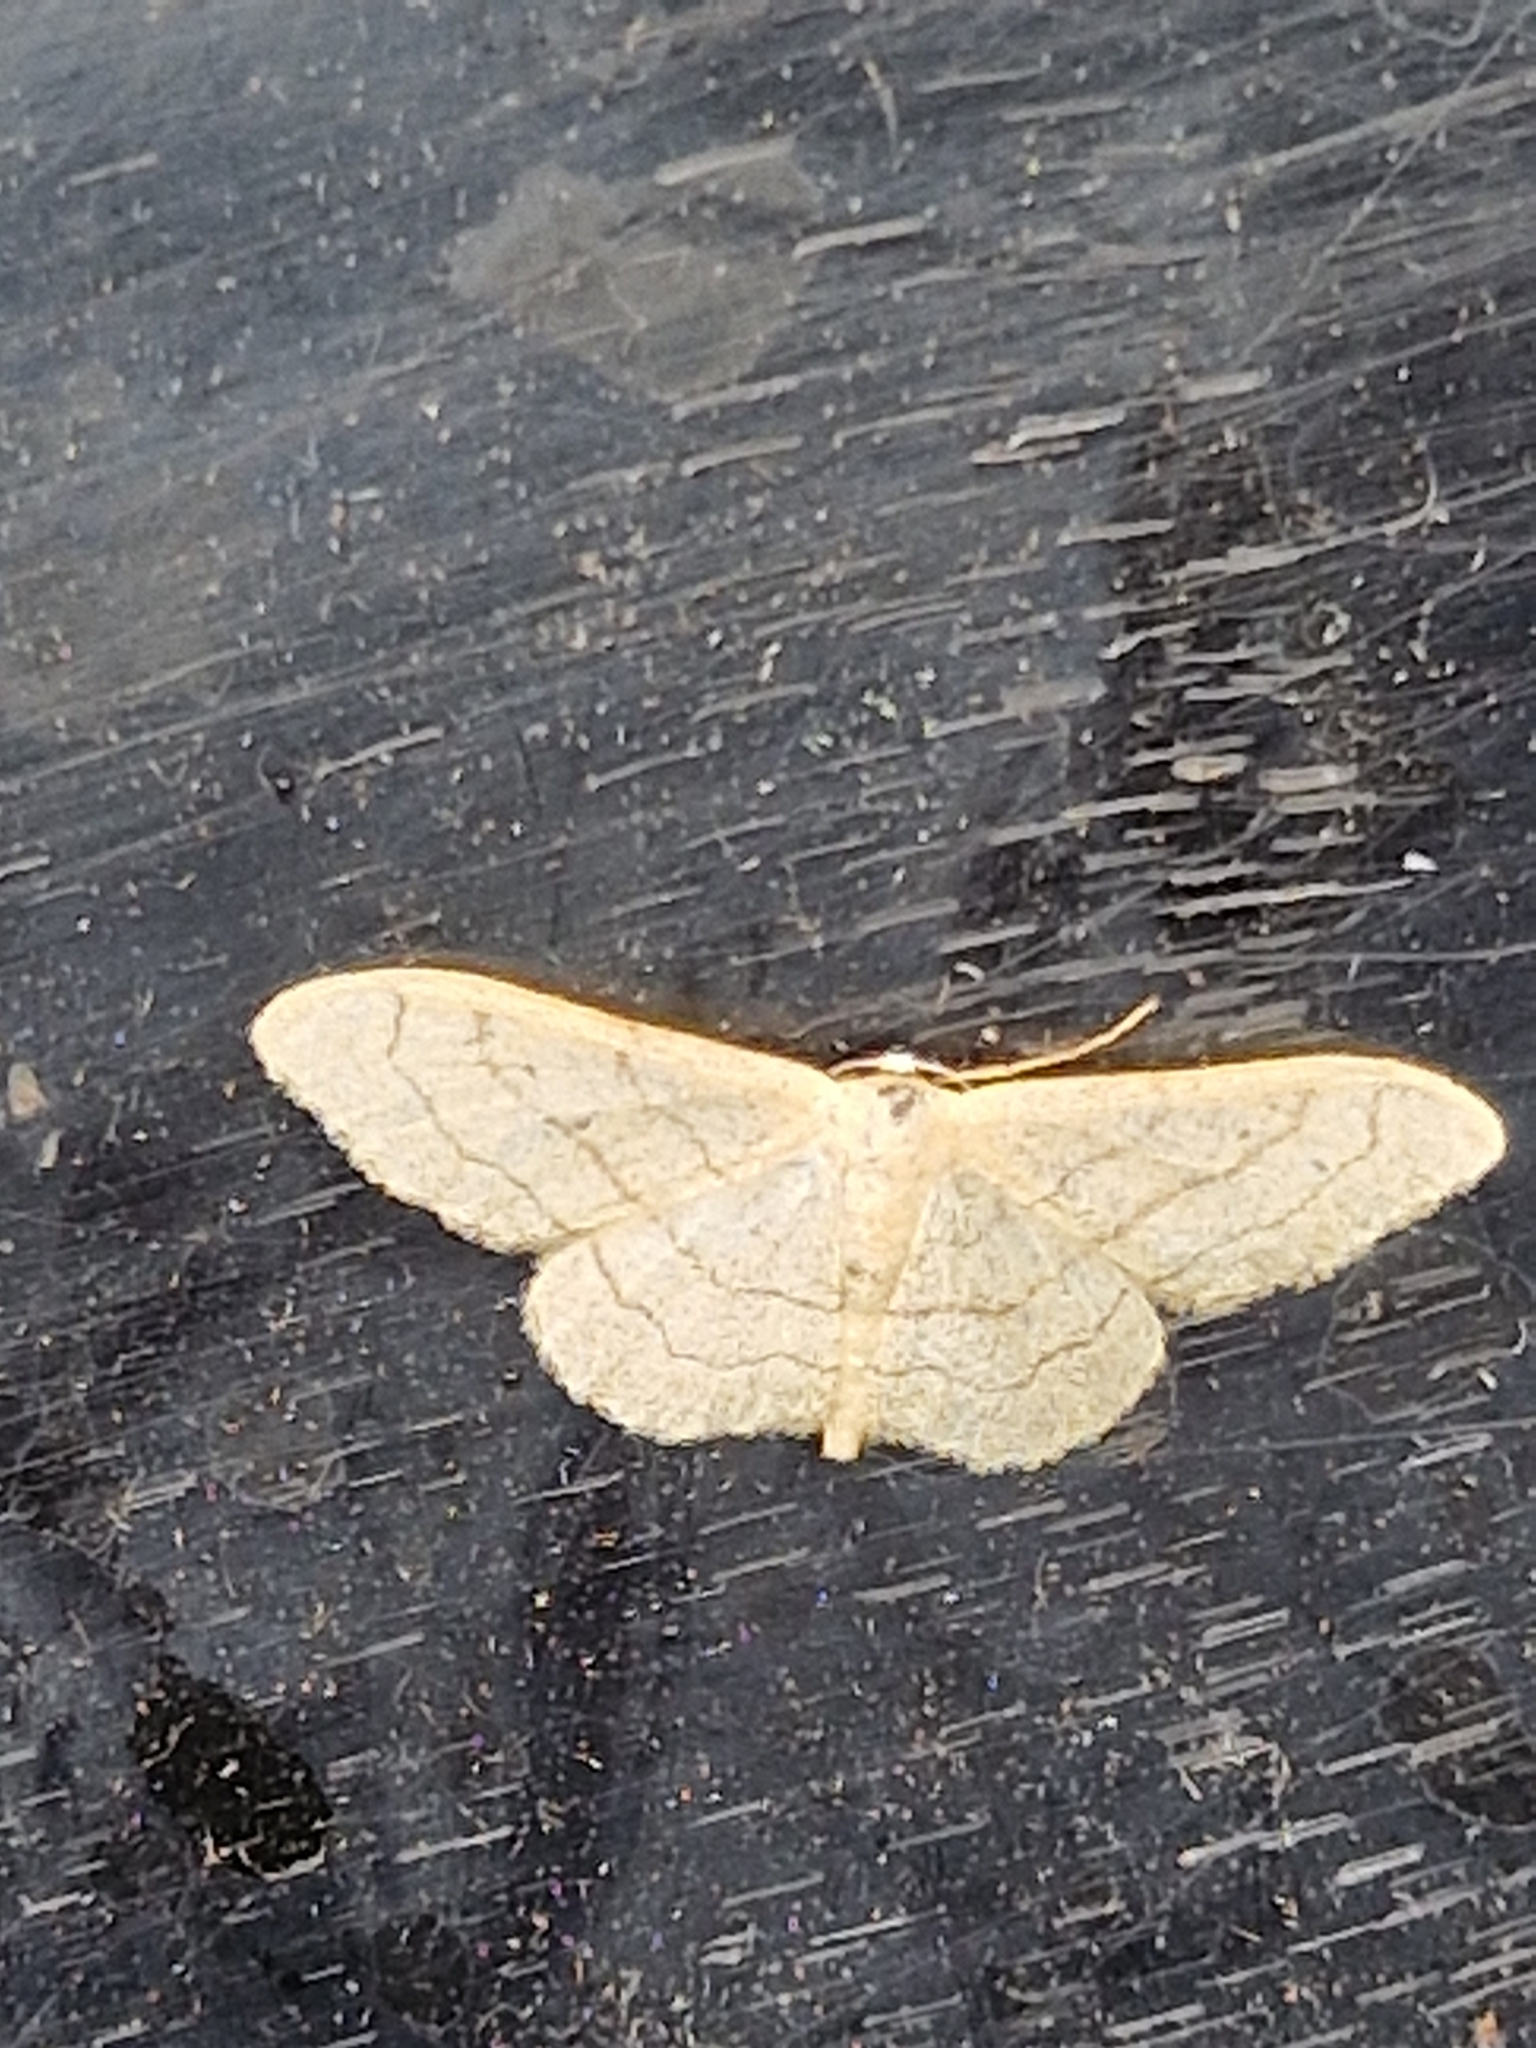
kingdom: Animalia
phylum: Arthropoda
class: Insecta
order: Lepidoptera
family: Geometridae
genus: Idaea
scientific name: Idaea aversata
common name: Riband wave
